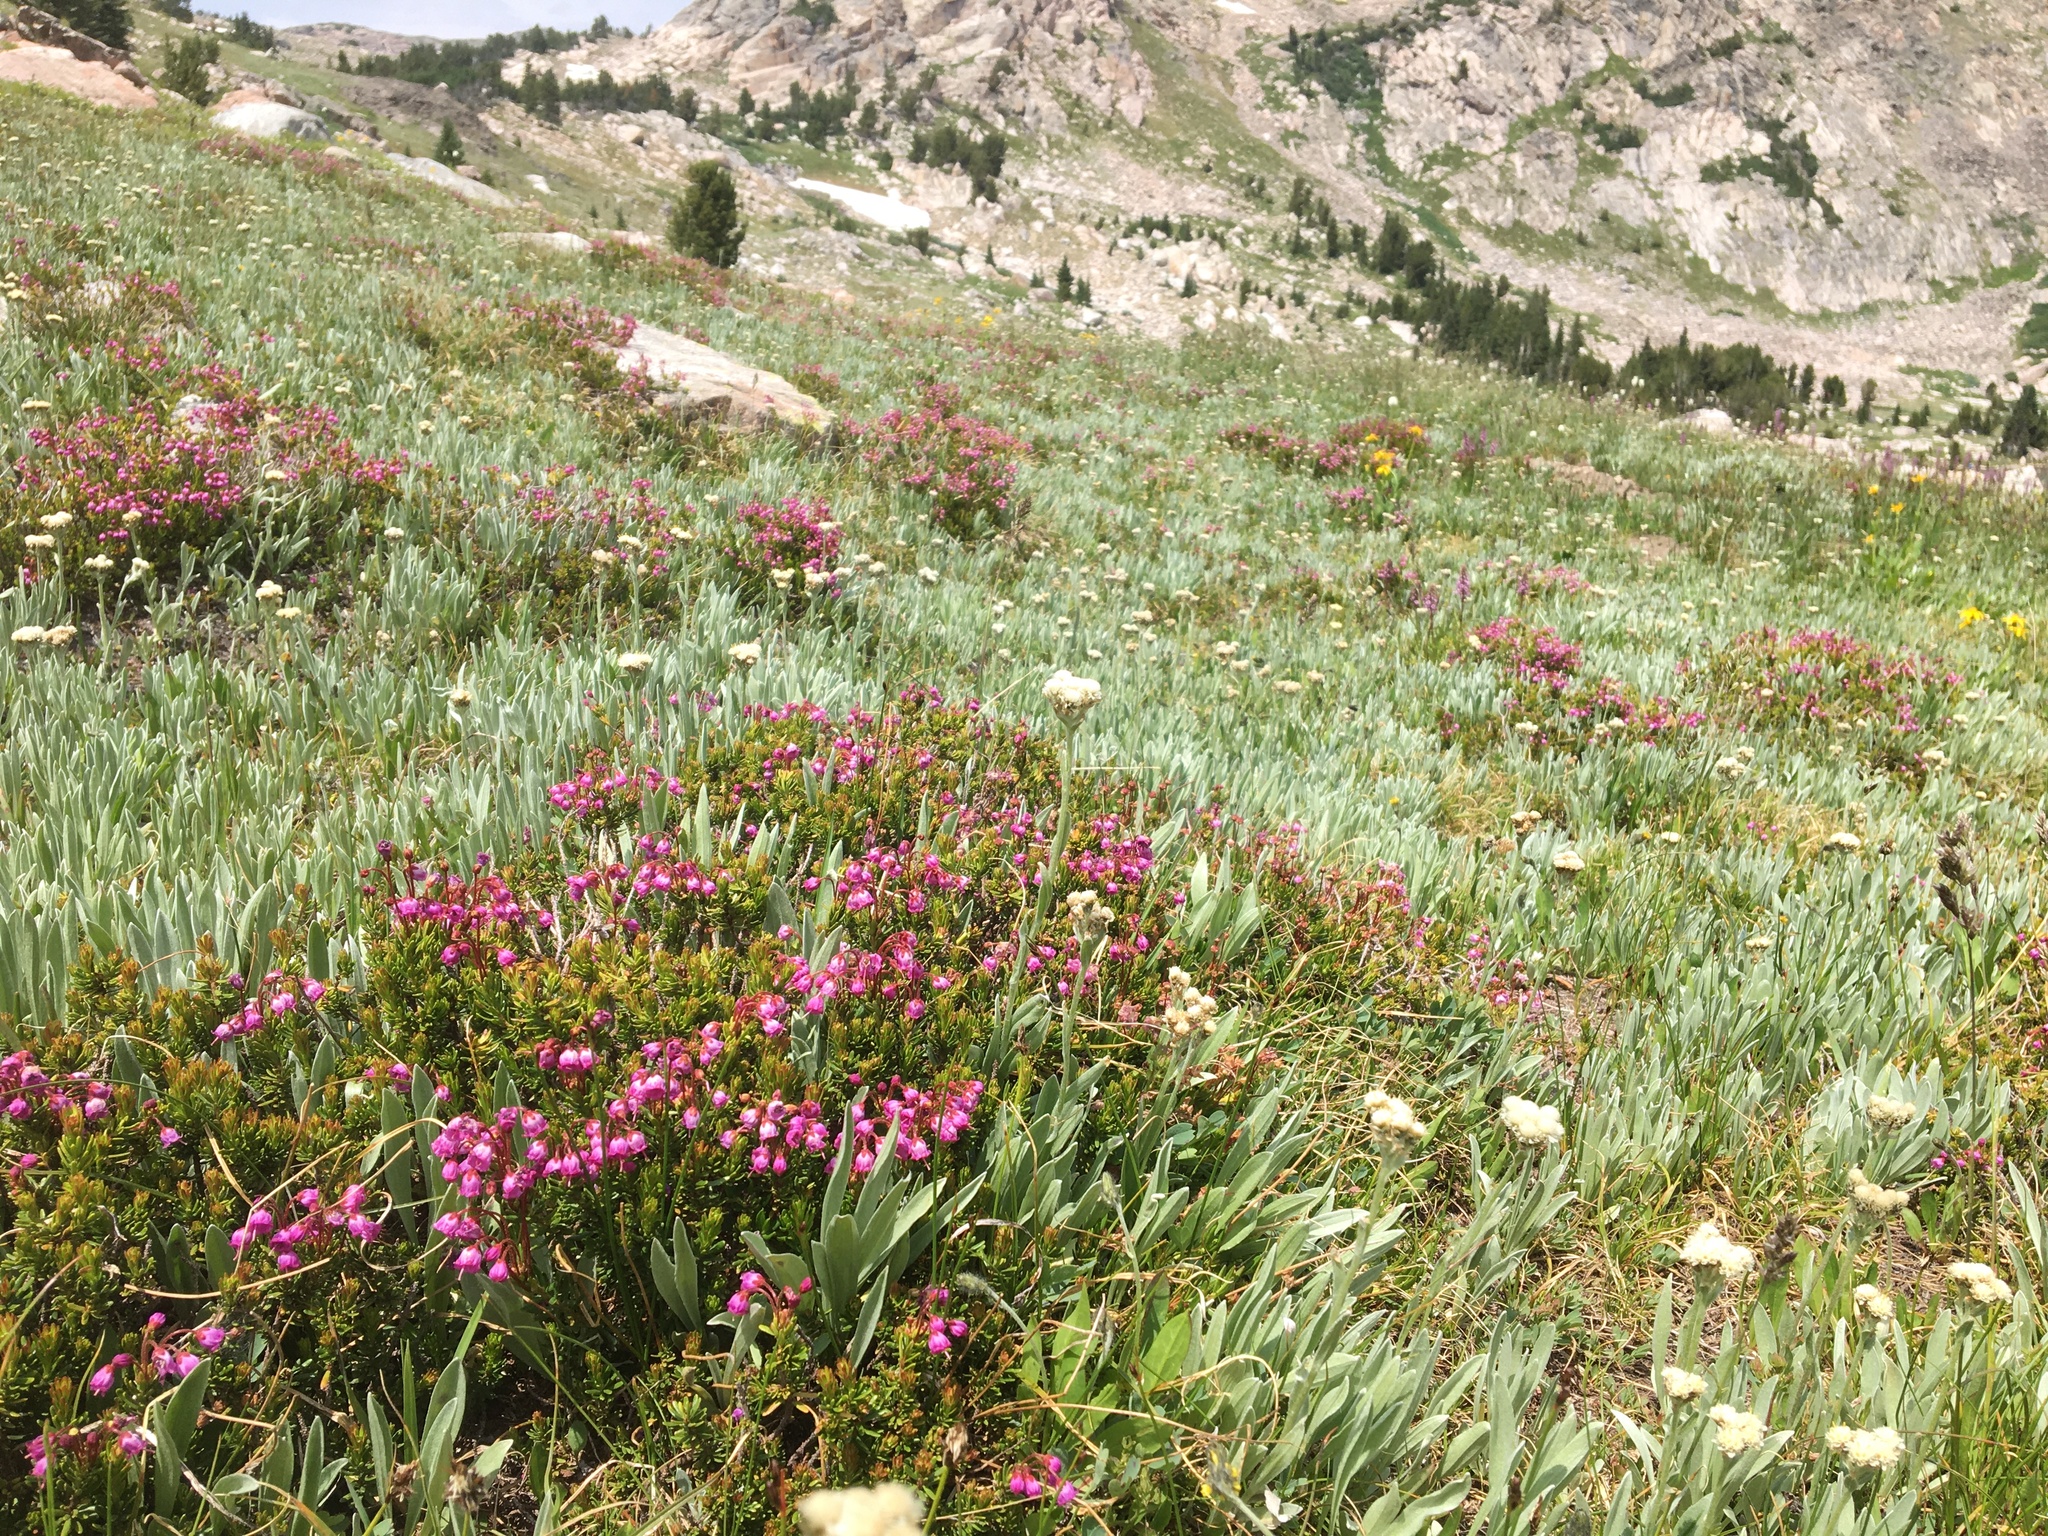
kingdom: Plantae
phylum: Tracheophyta
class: Magnoliopsida
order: Ericales
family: Ericaceae
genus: Phyllodoce
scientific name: Phyllodoce empetriformis
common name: Pink mountain heather
